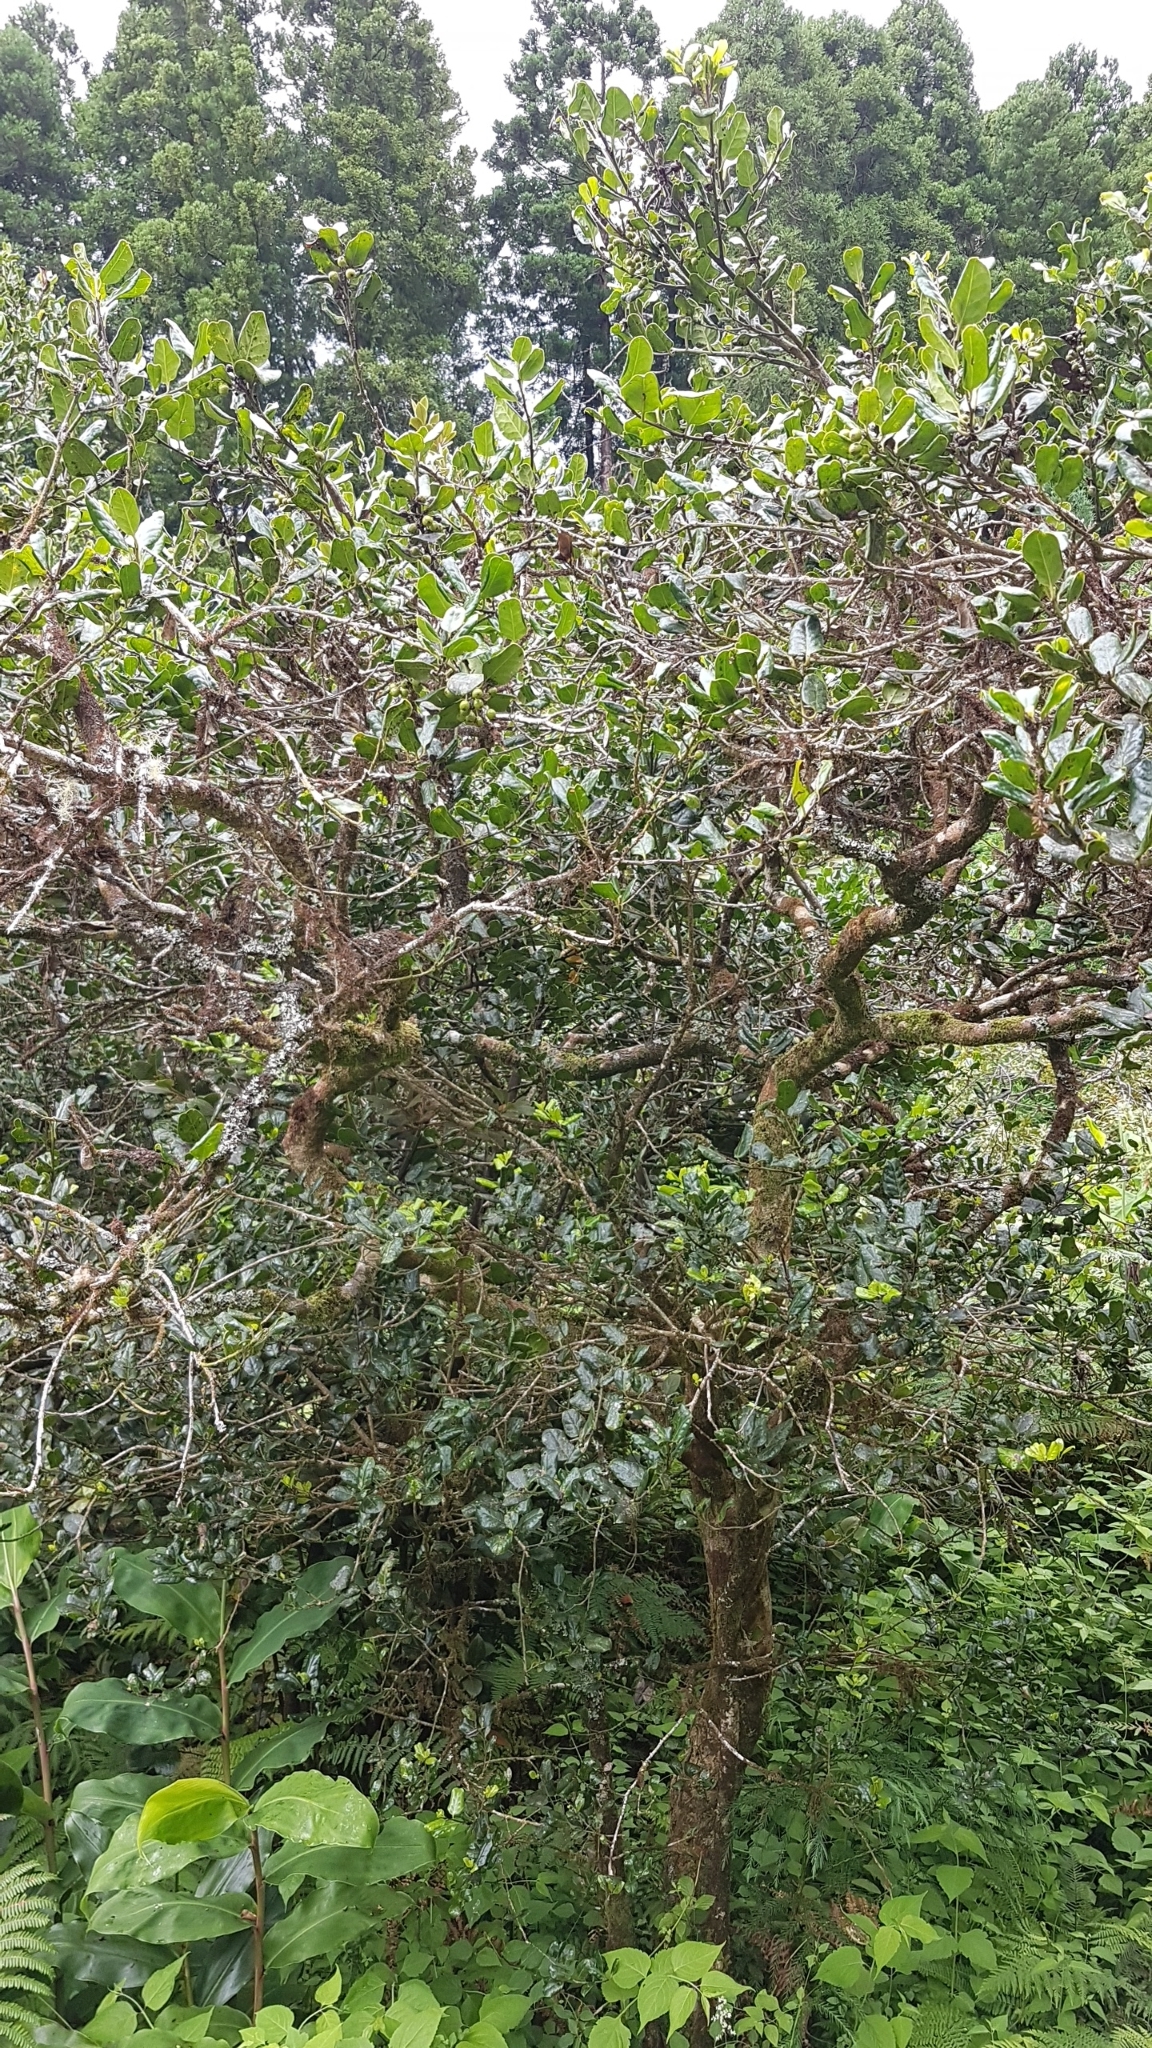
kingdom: Plantae
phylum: Tracheophyta
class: Magnoliopsida
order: Aquifoliales
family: Aquifoliaceae
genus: Ilex
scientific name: Ilex perado
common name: Madeira holly
